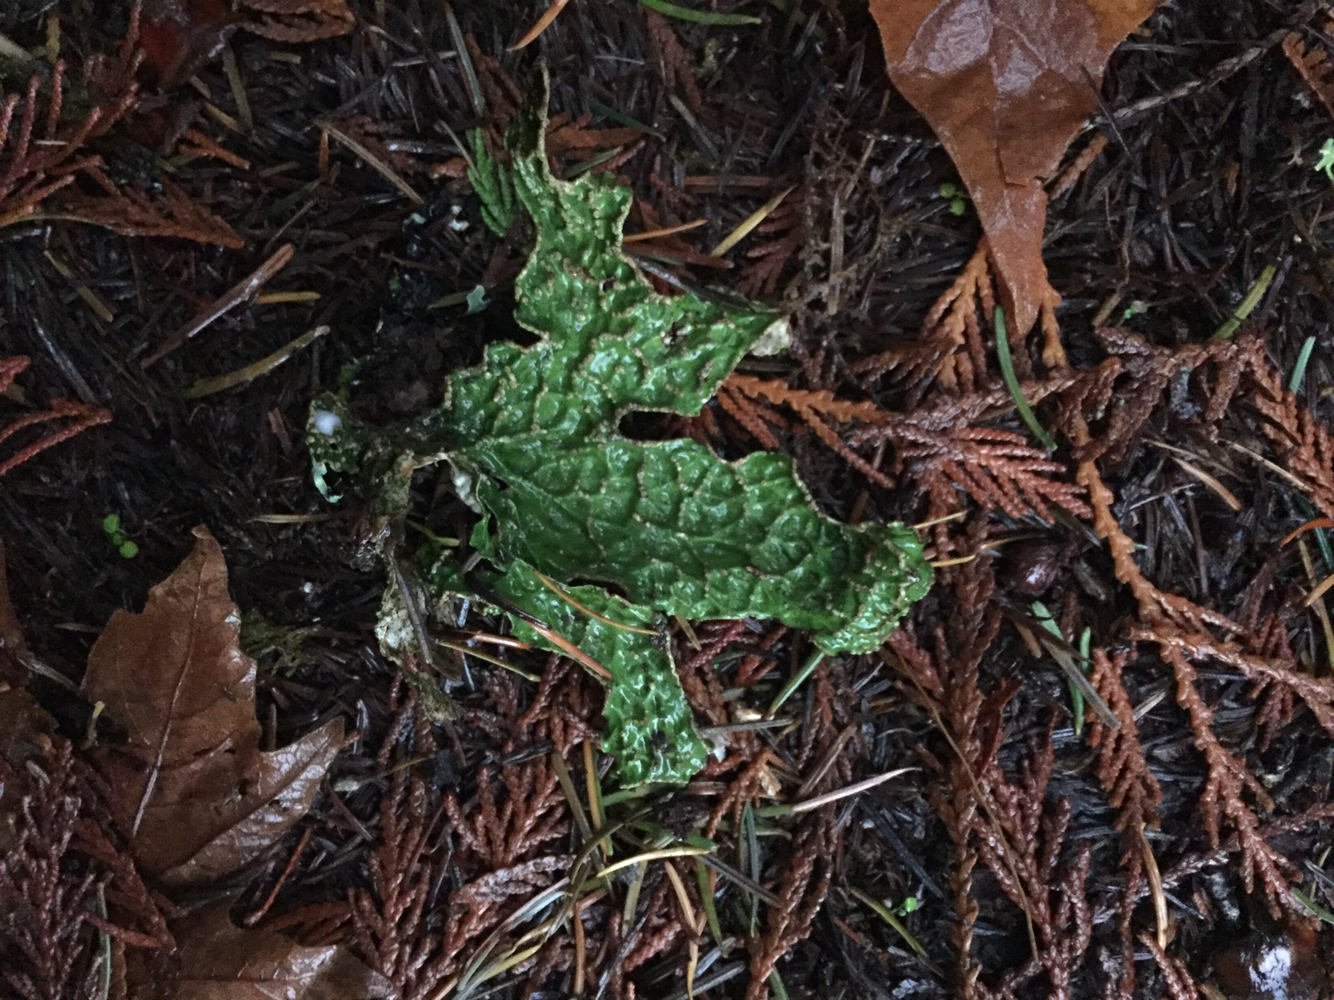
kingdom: Fungi
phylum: Ascomycota
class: Lecanoromycetes
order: Peltigerales
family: Lobariaceae
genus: Lobaria
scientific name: Lobaria pulmonaria
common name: Lungwort
